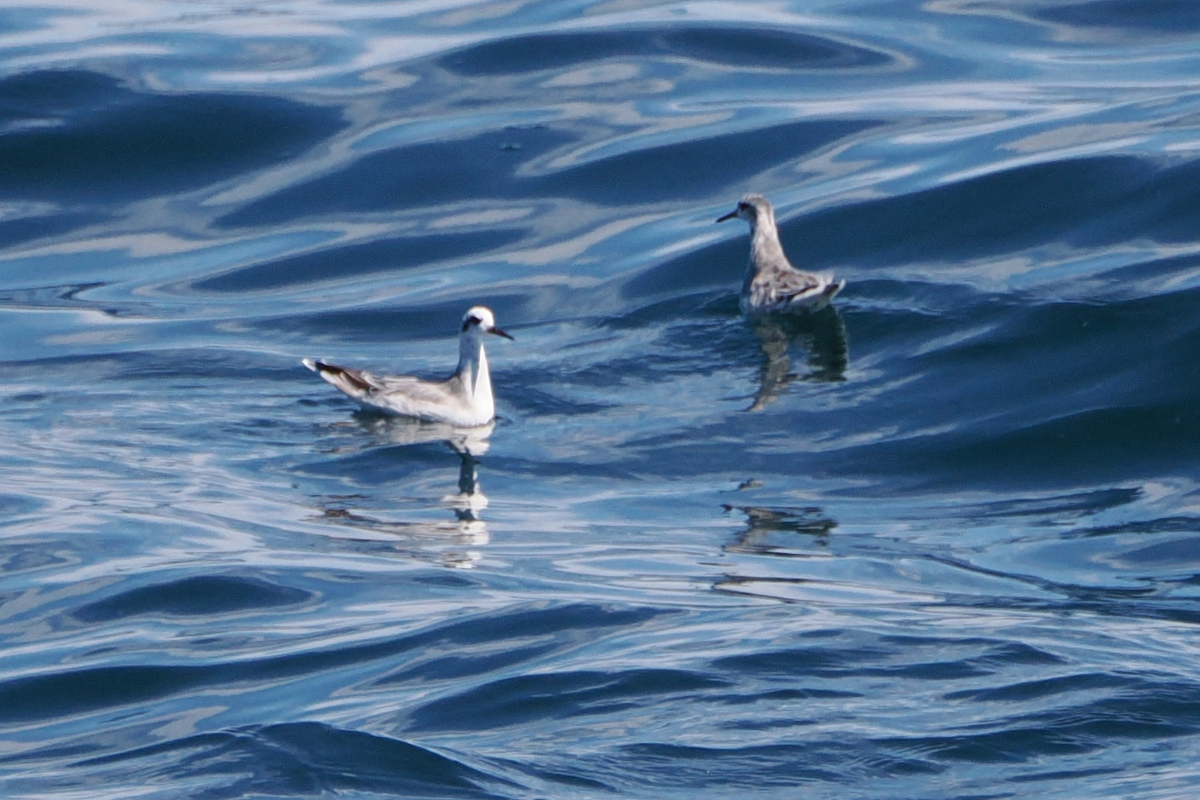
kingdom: Animalia
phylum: Chordata
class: Aves
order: Charadriiformes
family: Scolopacidae
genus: Phalaropus
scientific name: Phalaropus fulicarius
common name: Red phalarope
